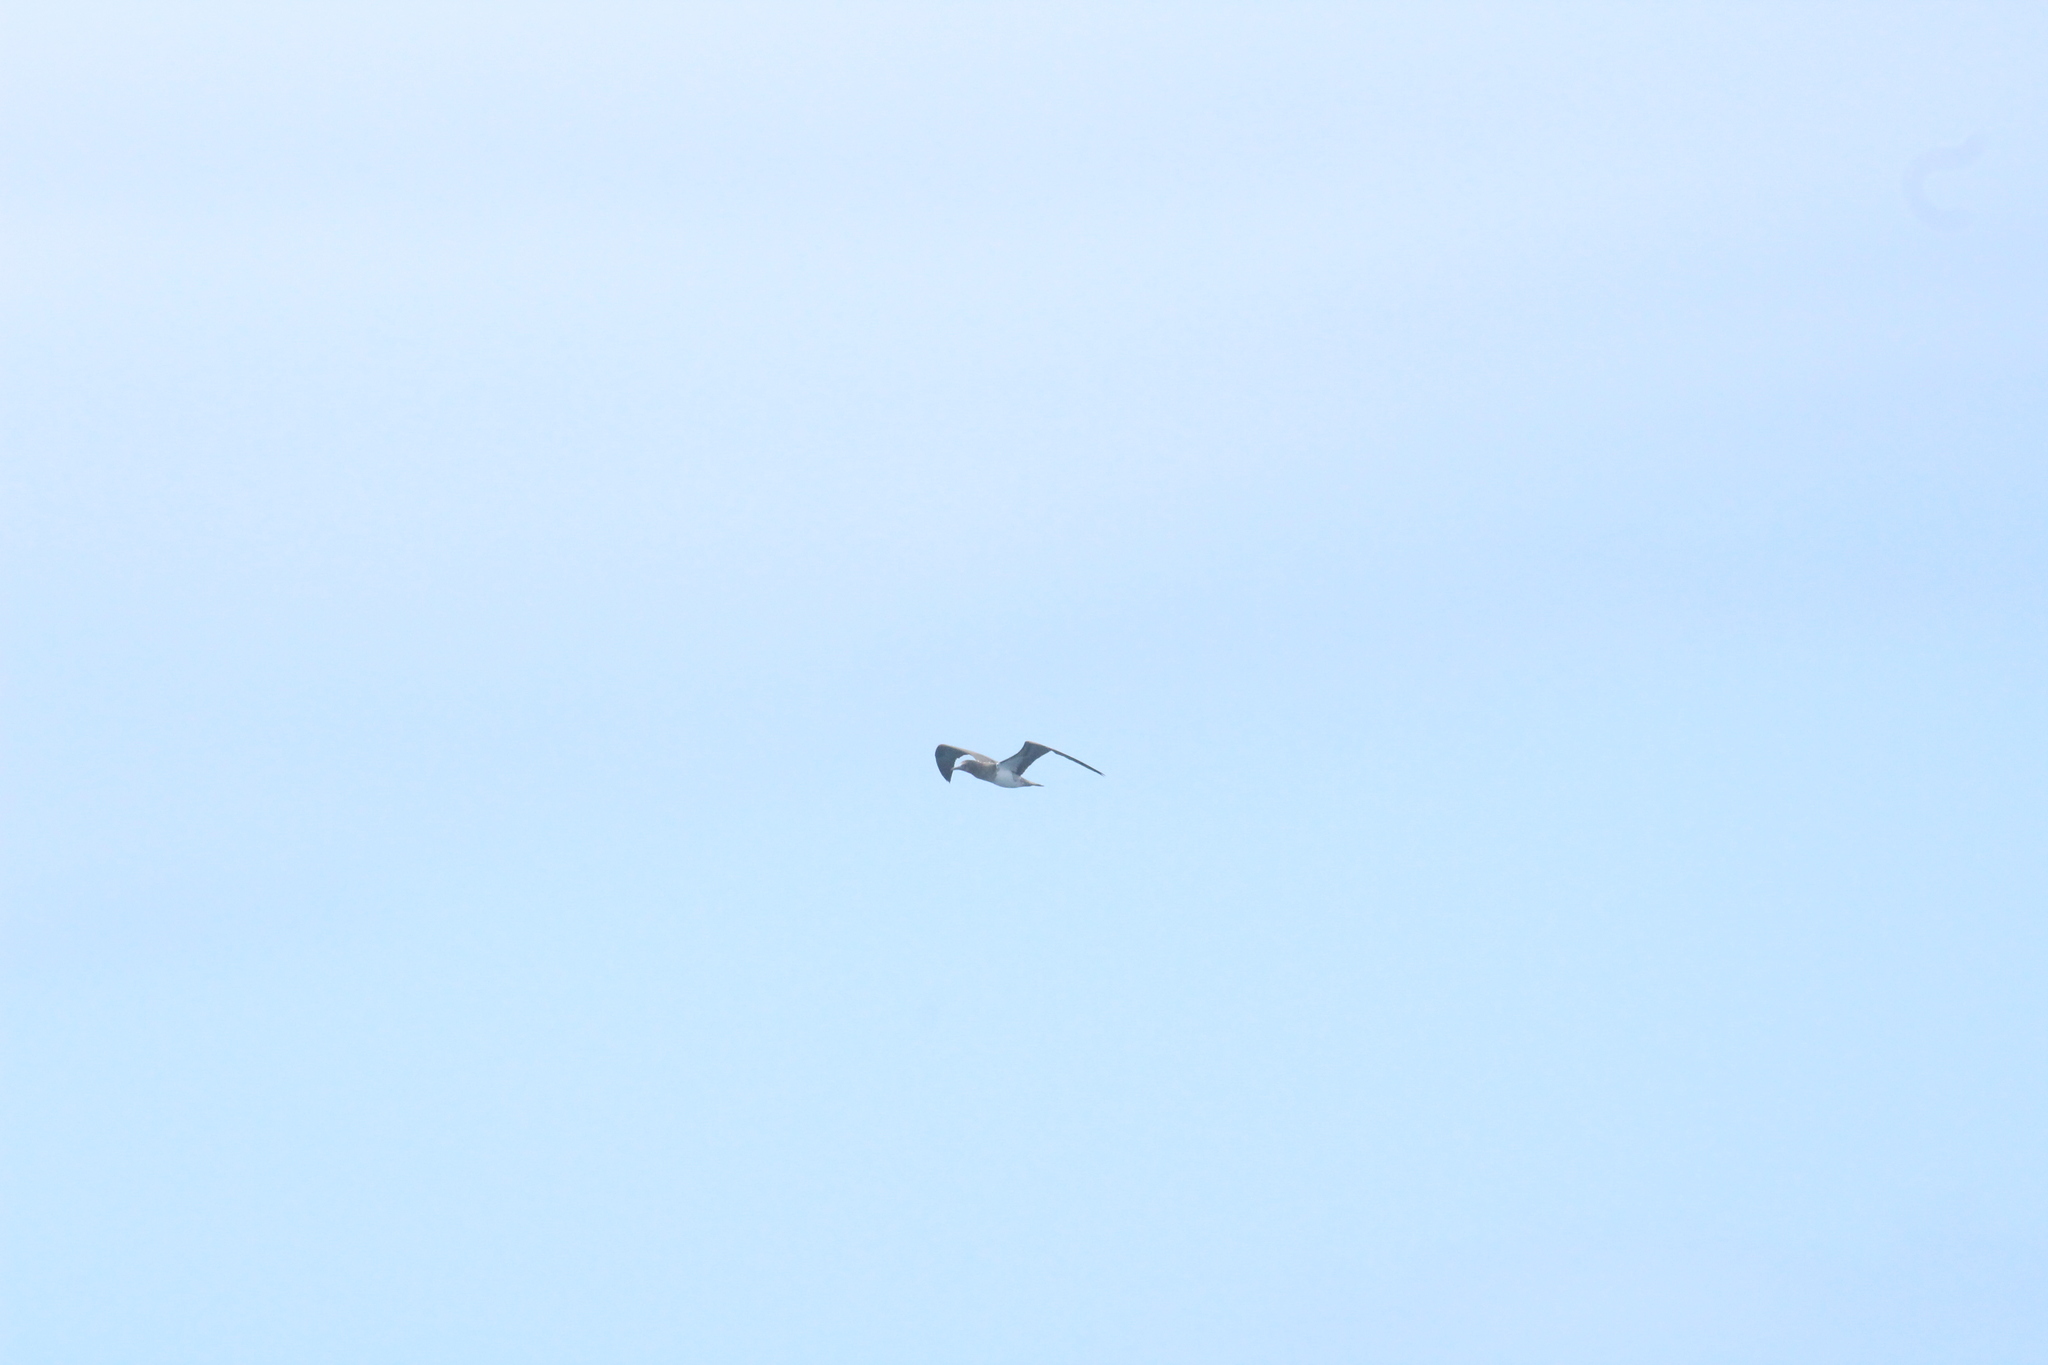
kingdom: Animalia
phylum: Chordata
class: Aves
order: Suliformes
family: Sulidae
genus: Sula
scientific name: Sula nebouxii
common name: Blue-footed booby
